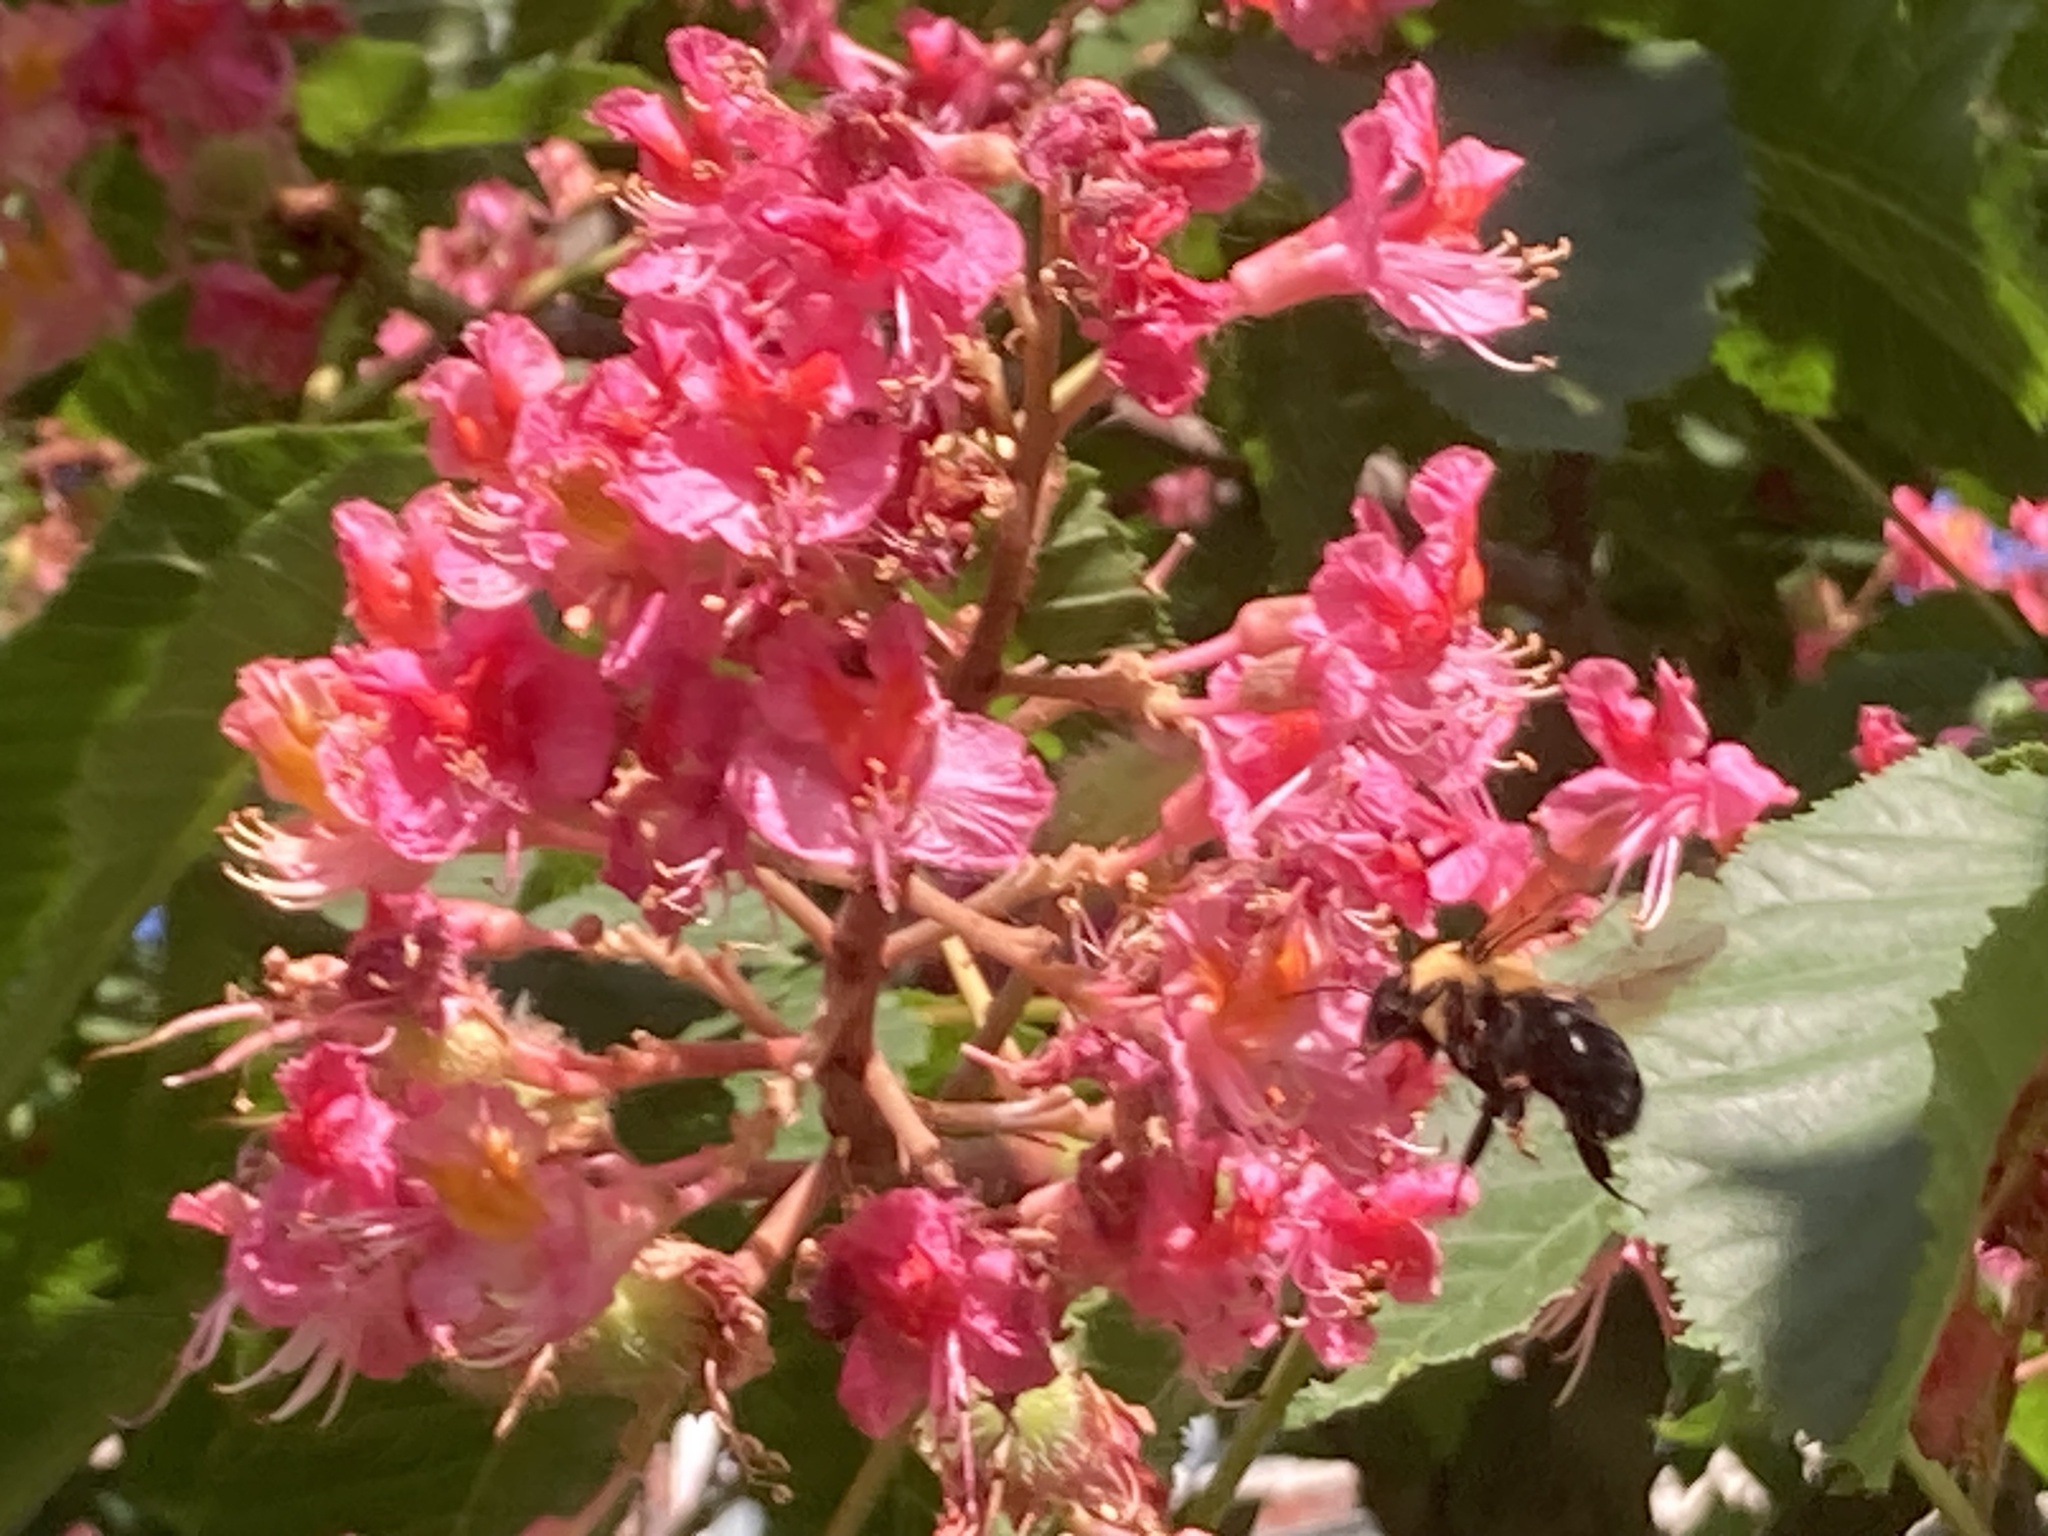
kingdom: Animalia
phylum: Arthropoda
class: Insecta
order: Hymenoptera
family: Apidae
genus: Bombus
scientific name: Bombus griseocollis
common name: Brown-belted bumble bee
